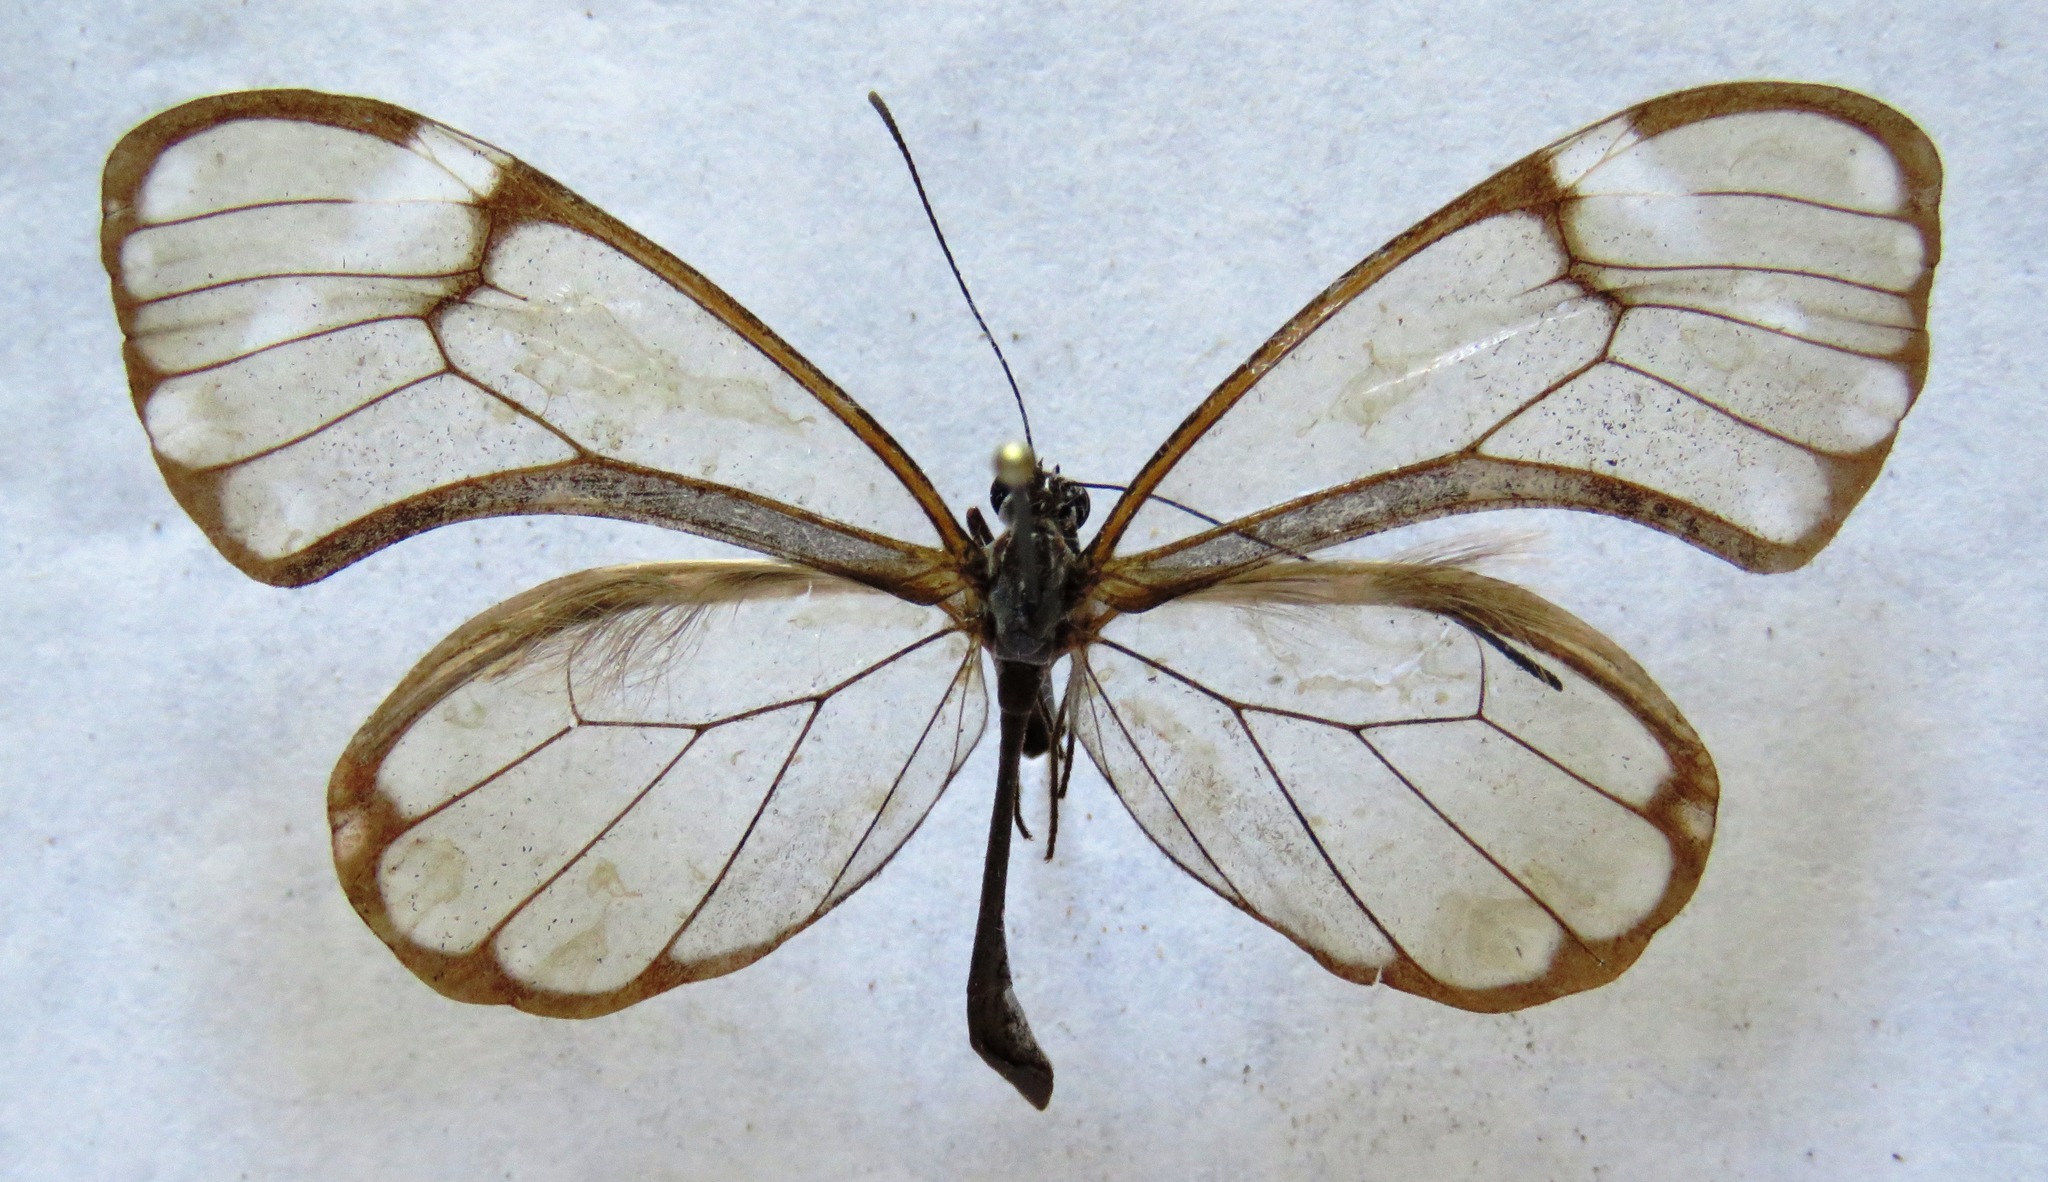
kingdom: Animalia
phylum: Arthropoda
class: Insecta
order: Lepidoptera
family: Nymphalidae
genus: Greta
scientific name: Greta annette
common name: White-spotted clearwing
